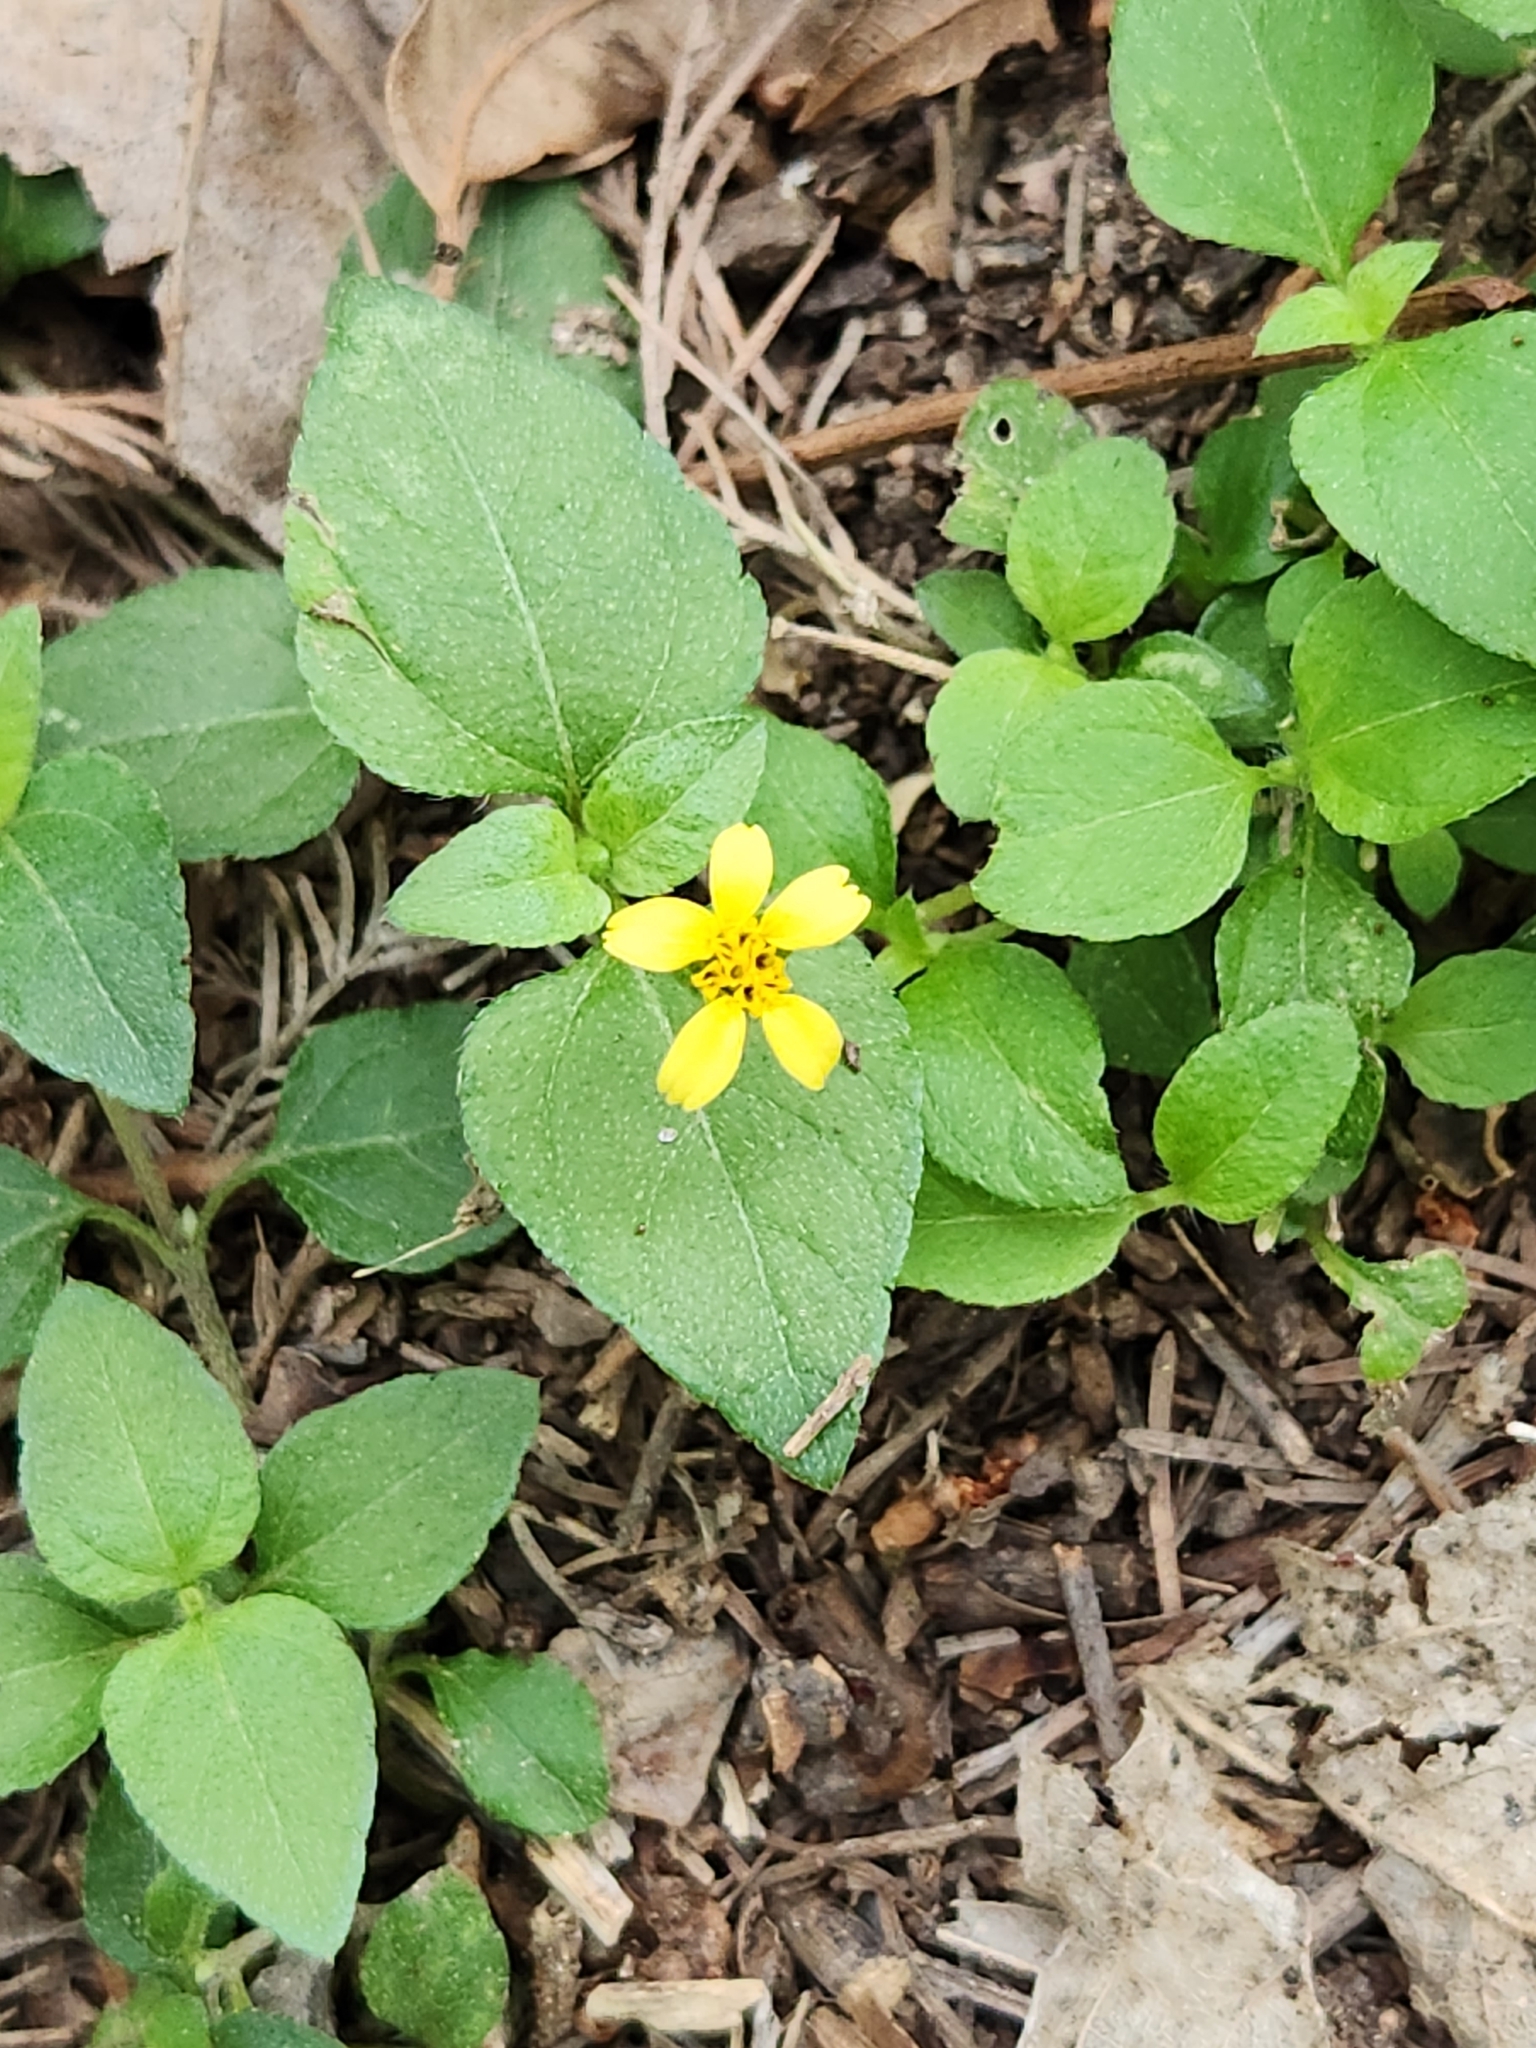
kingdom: Plantae
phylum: Tracheophyta
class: Magnoliopsida
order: Asterales
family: Asteraceae
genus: Calyptocarpus
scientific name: Calyptocarpus vialis
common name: Straggler daisy
